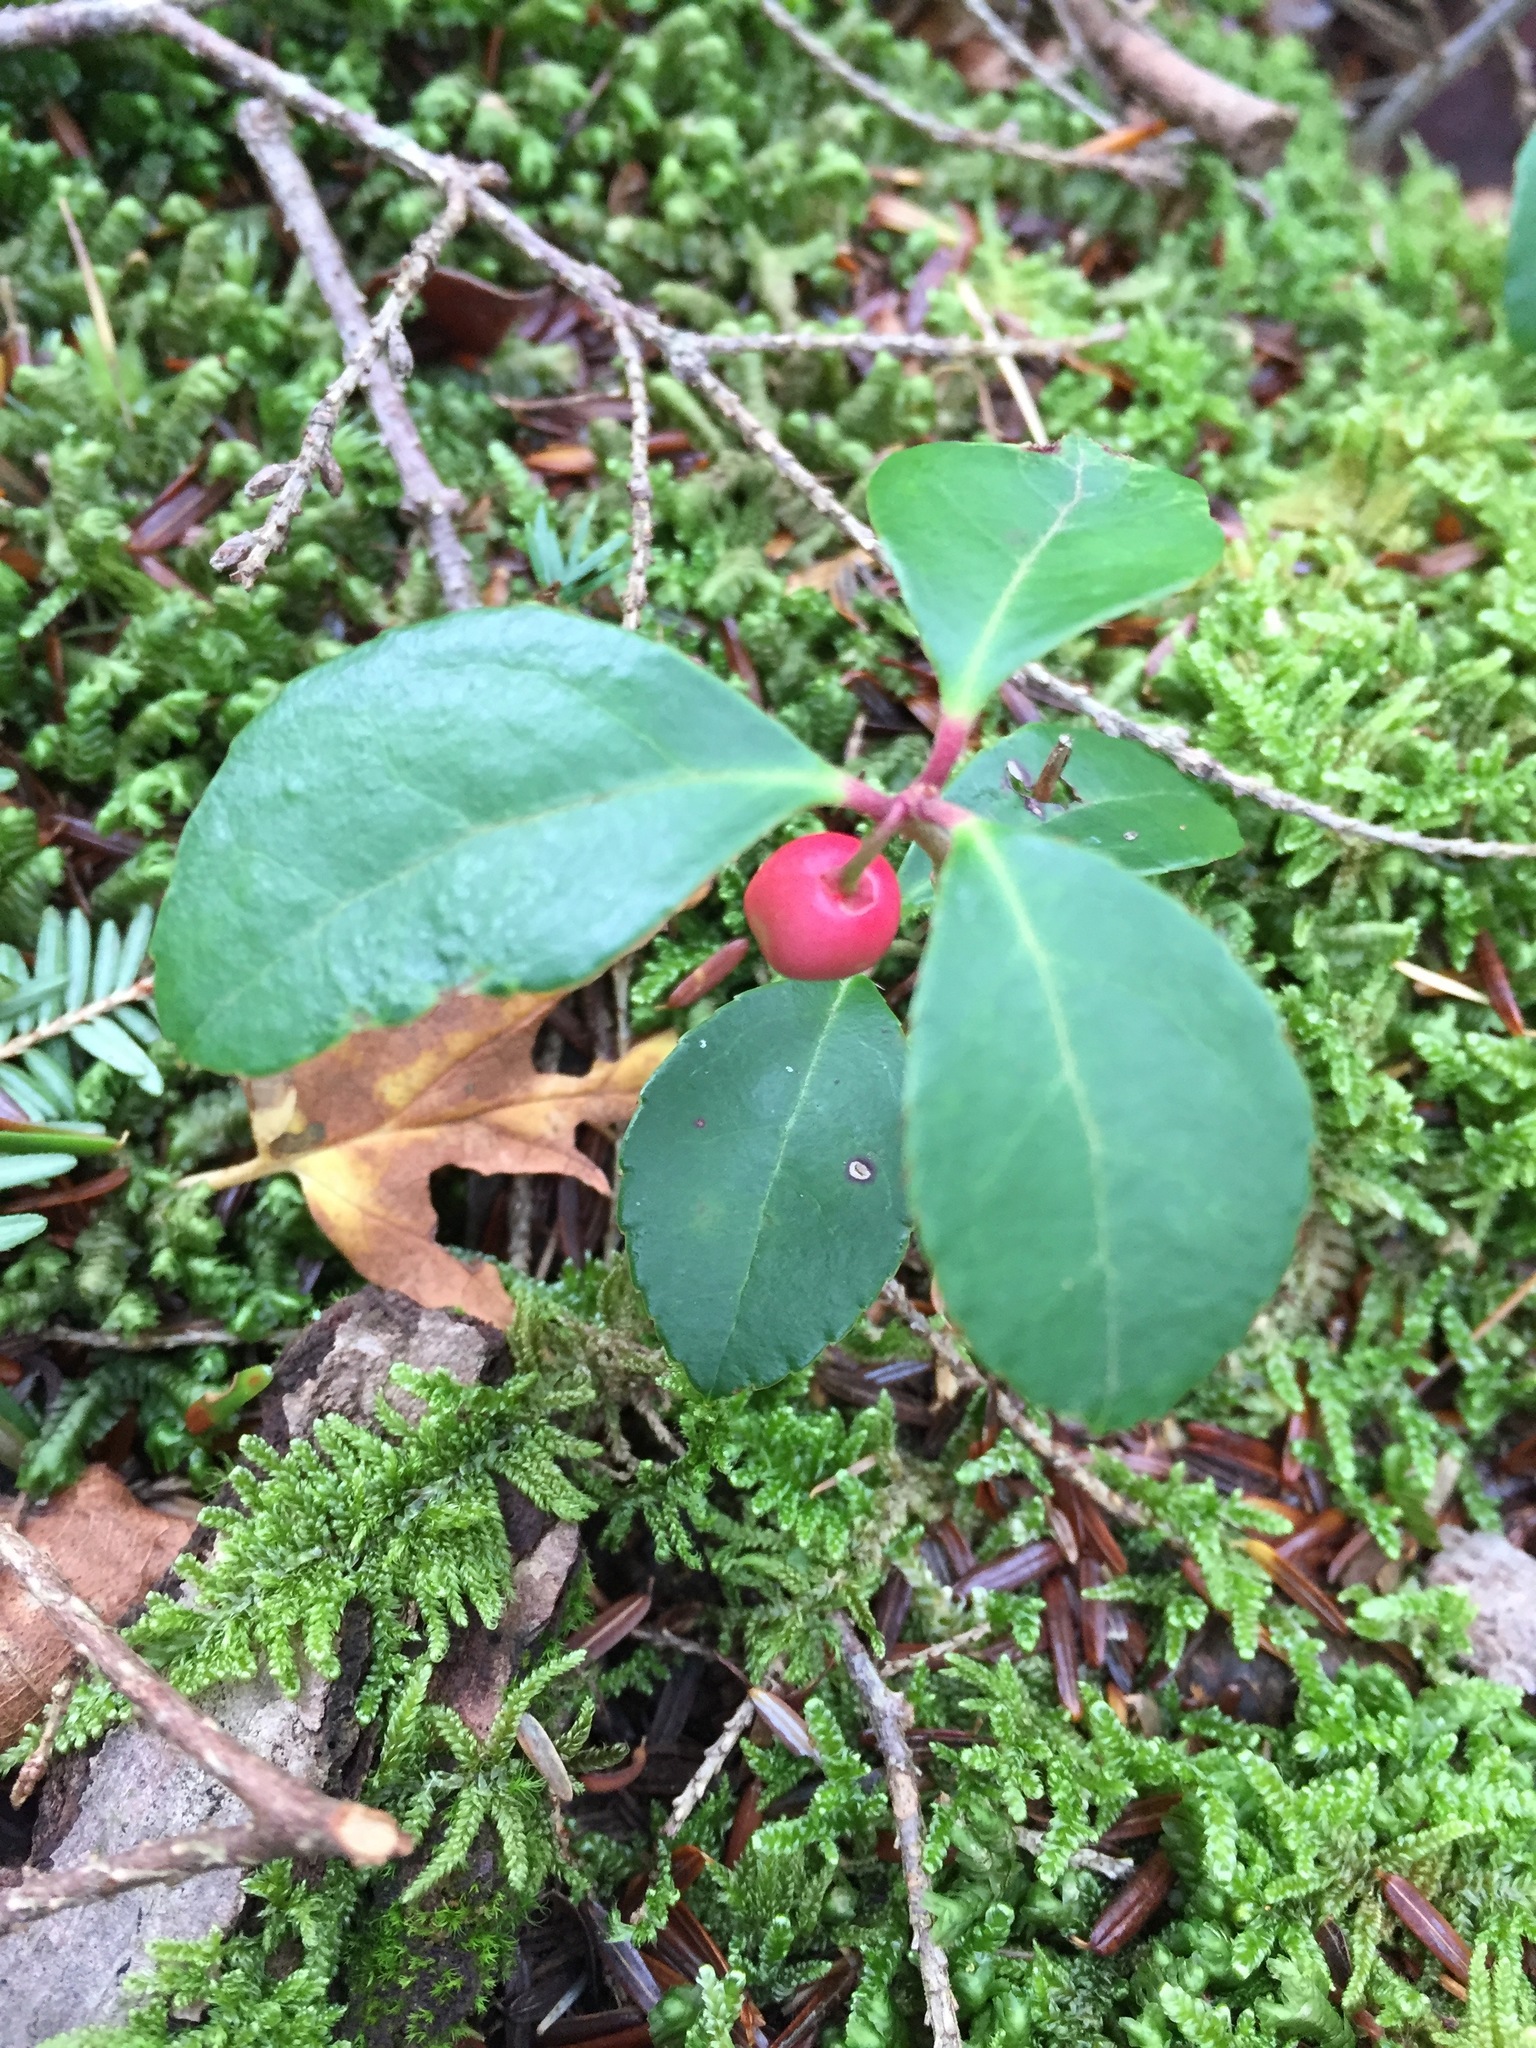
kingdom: Plantae
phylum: Tracheophyta
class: Magnoliopsida
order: Ericales
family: Ericaceae
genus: Gaultheria
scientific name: Gaultheria procumbens
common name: Checkerberry
